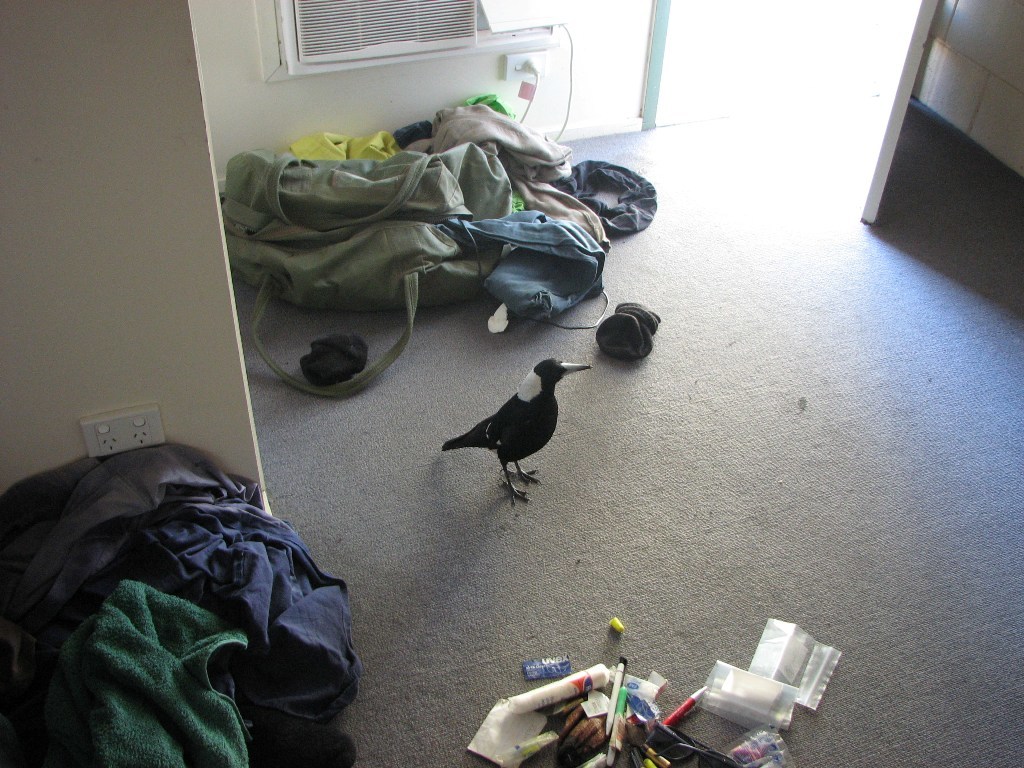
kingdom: Animalia
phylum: Chordata
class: Aves
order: Passeriformes
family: Cracticidae
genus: Gymnorhina
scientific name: Gymnorhina tibicen
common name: Australian magpie
